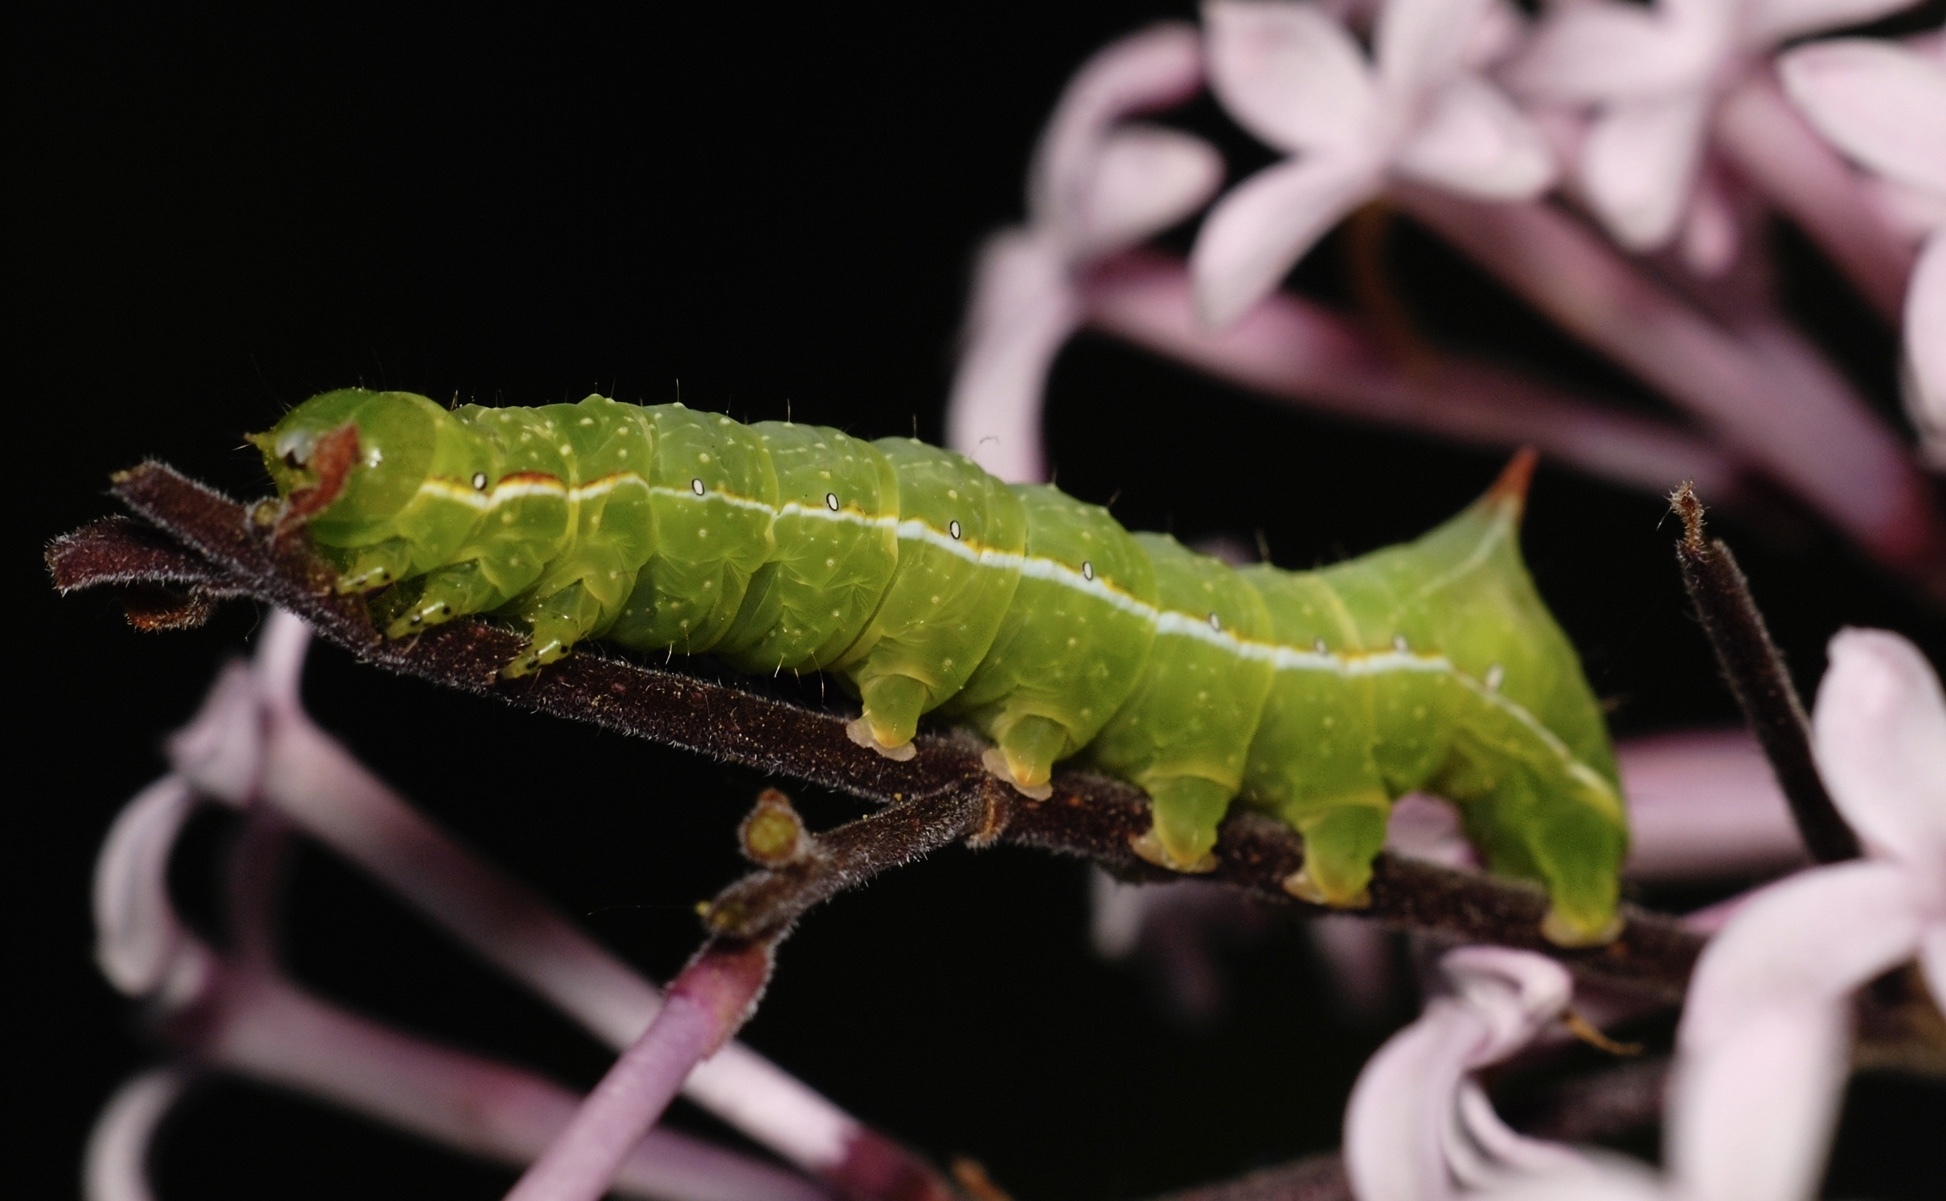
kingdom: Animalia
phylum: Arthropoda
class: Insecta
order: Lepidoptera
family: Noctuidae
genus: Amphipyra
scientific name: Amphipyra berbera
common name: Svensson's copper underwing
